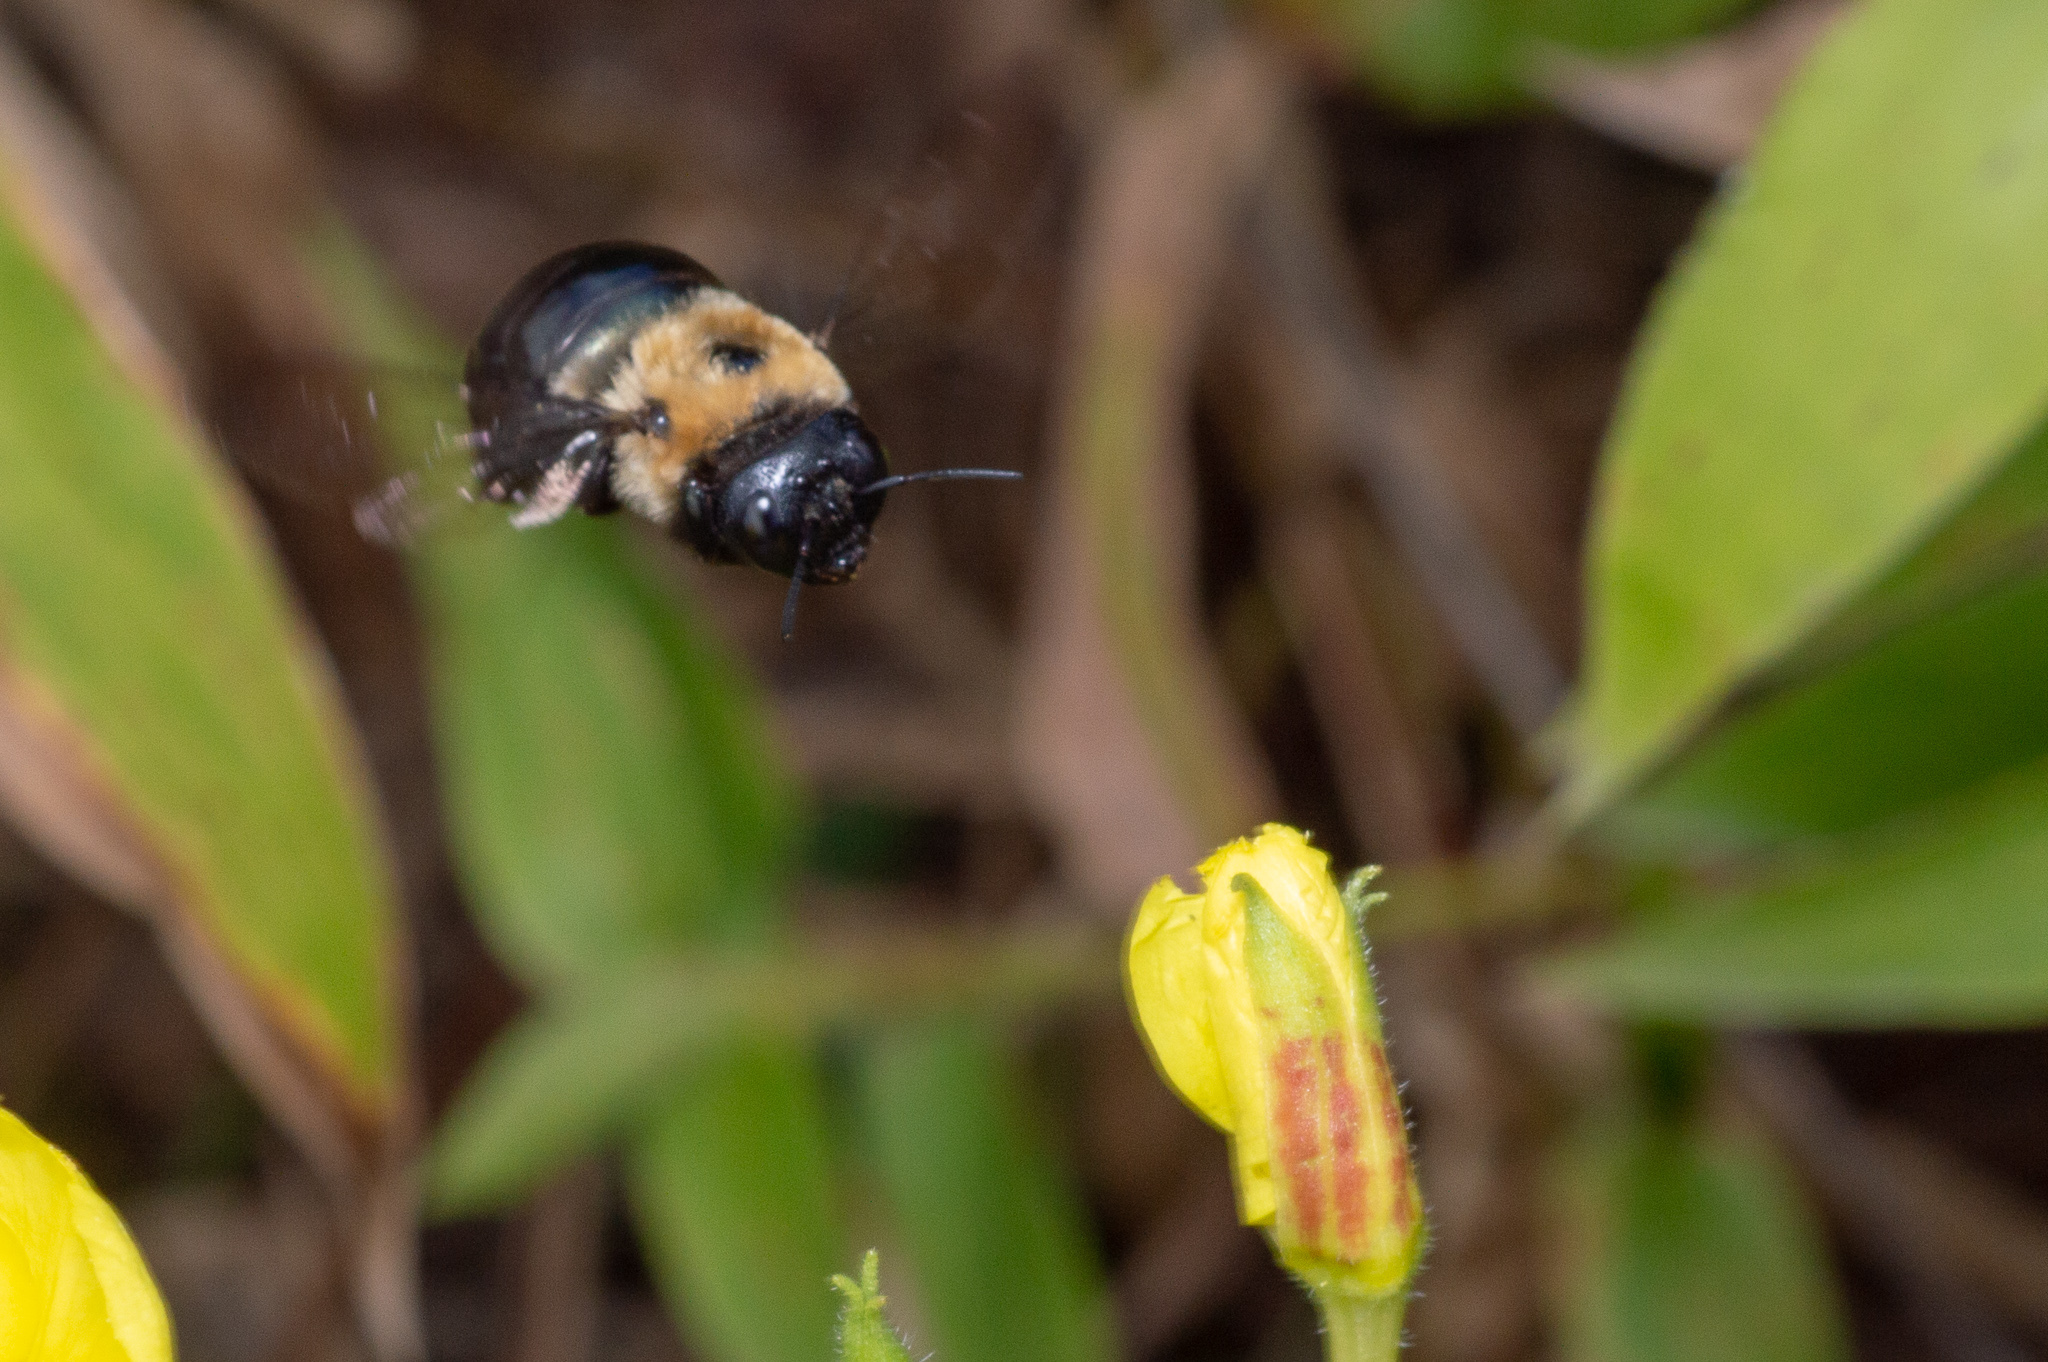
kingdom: Animalia
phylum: Arthropoda
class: Insecta
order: Hymenoptera
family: Apidae
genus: Xylocopa
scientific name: Xylocopa virginica
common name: Carpenter bee
